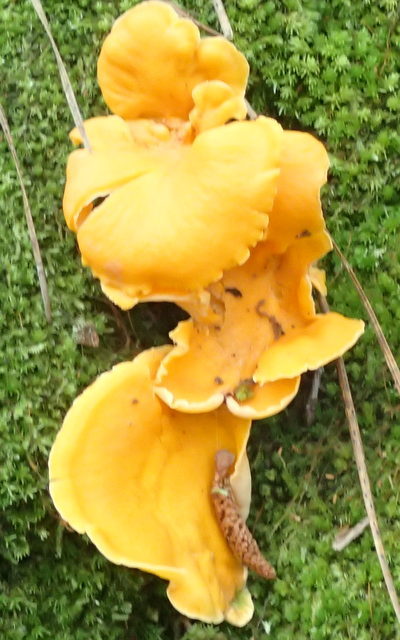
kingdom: Fungi
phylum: Basidiomycota
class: Agaricomycetes
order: Cantharellales
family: Hydnaceae
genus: Cantharellus
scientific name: Cantharellus lateritius
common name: Smooth chanterelle
